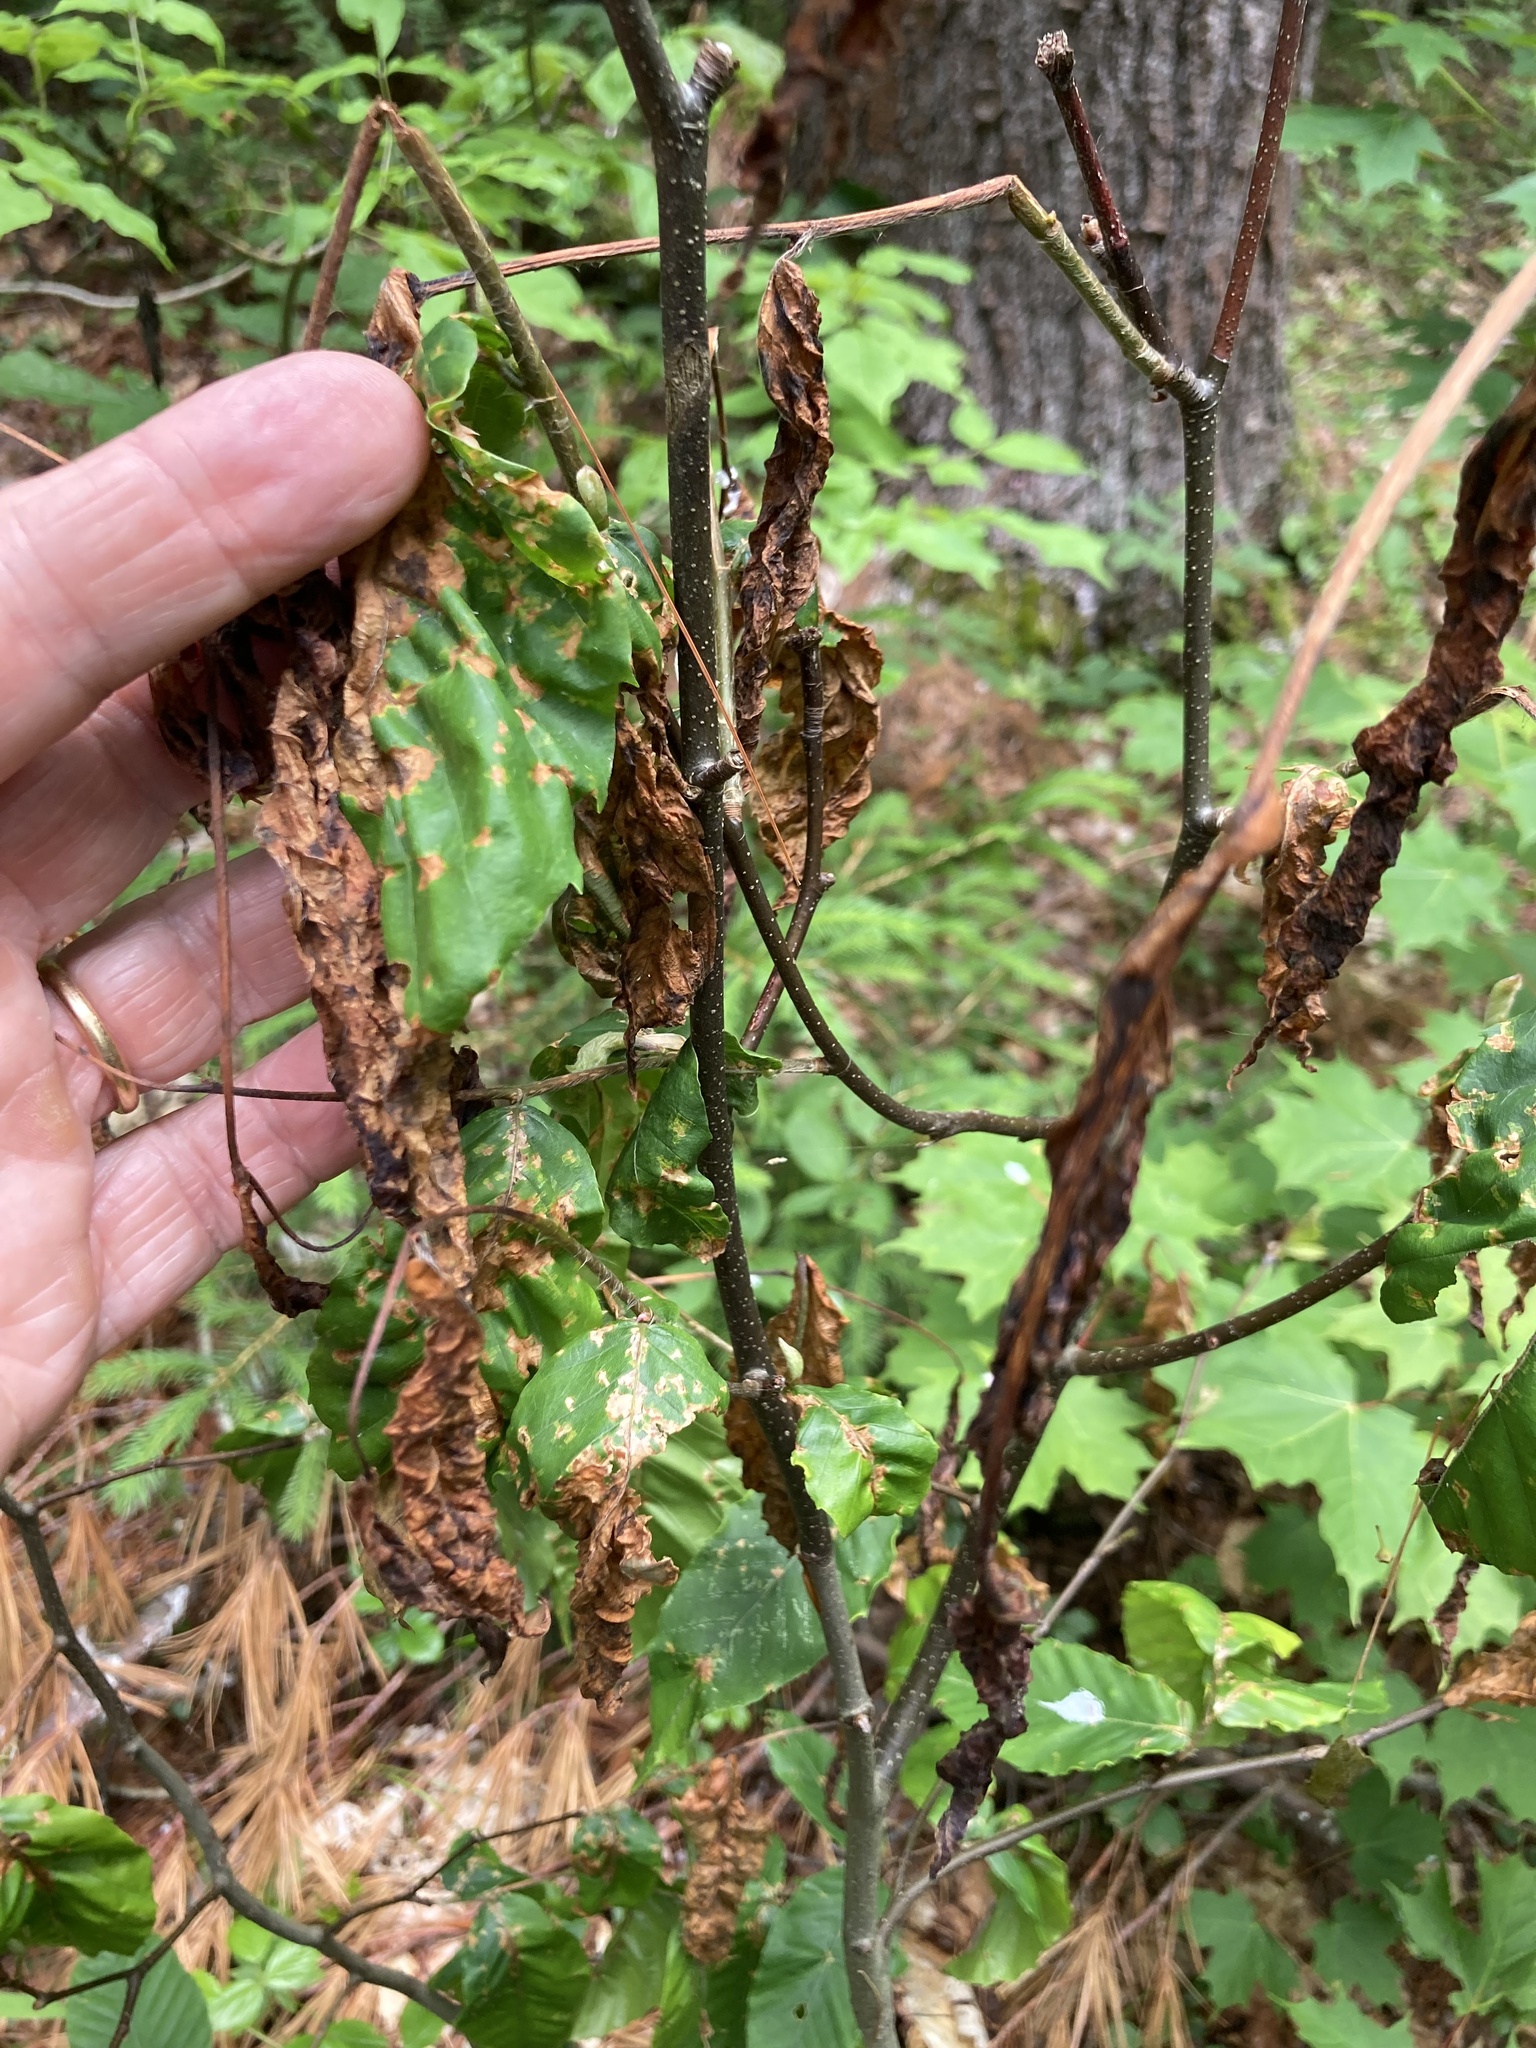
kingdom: Animalia
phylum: Nematoda
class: Chromadorea
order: Rhabditida
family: Anguinidae
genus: Litylenchus
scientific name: Litylenchus crenatae
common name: Beech leaf disease
